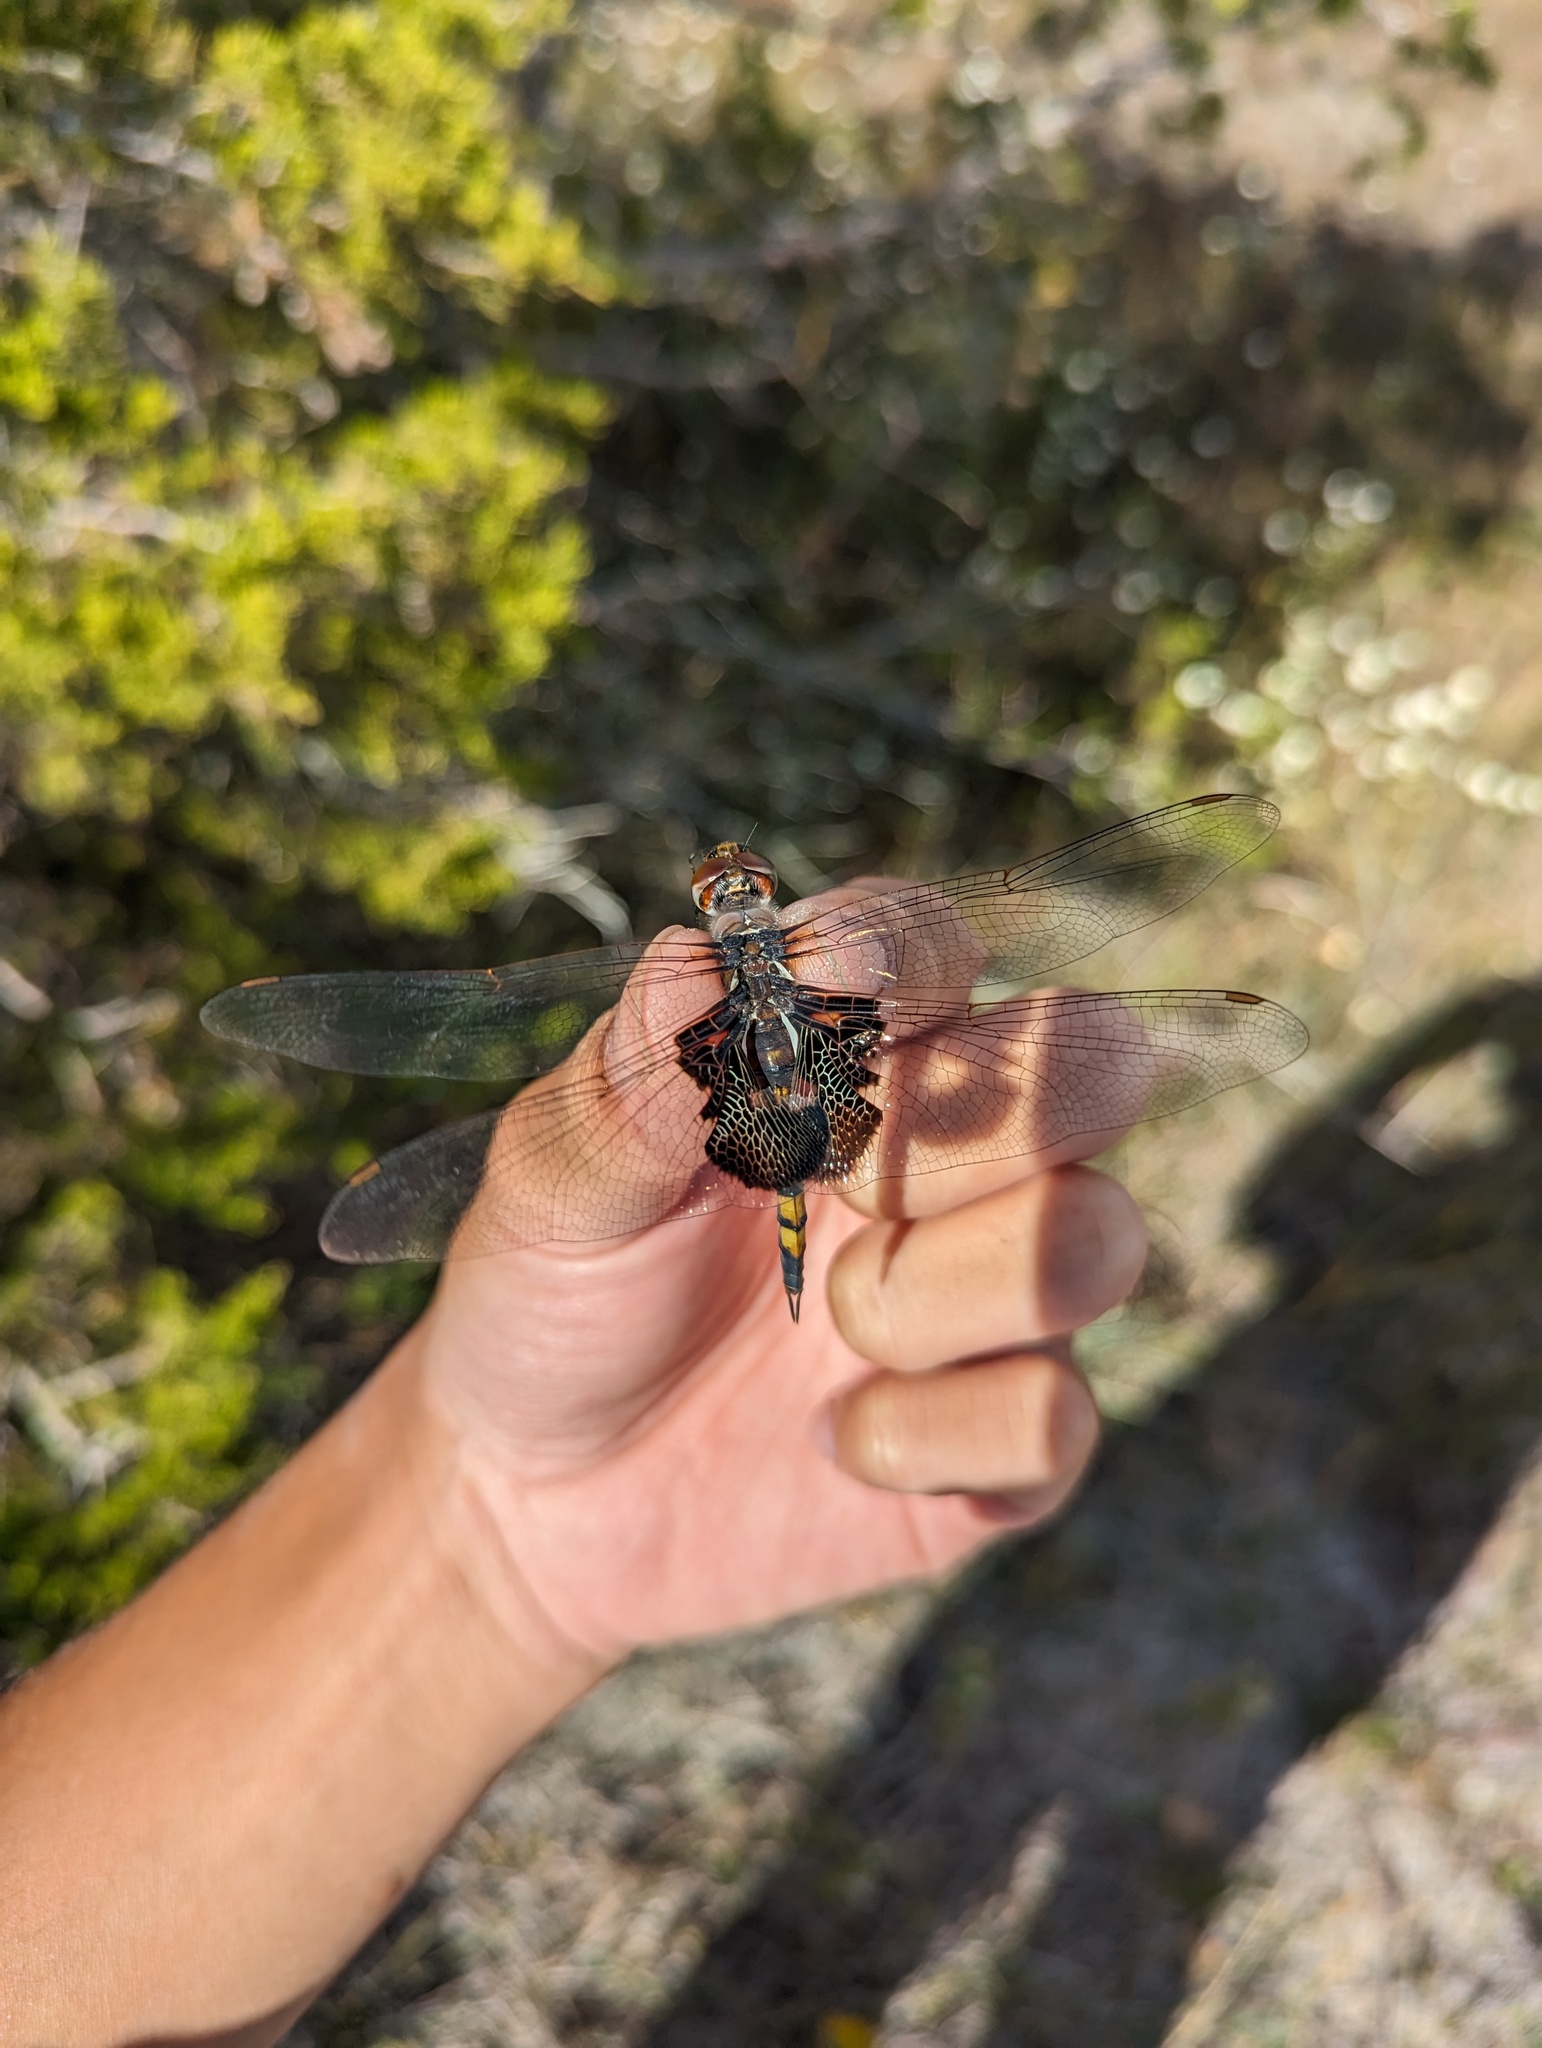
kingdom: Animalia
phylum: Arthropoda
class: Insecta
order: Odonata
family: Libellulidae
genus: Tramea
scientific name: Tramea lacerata
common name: Black saddlebags
